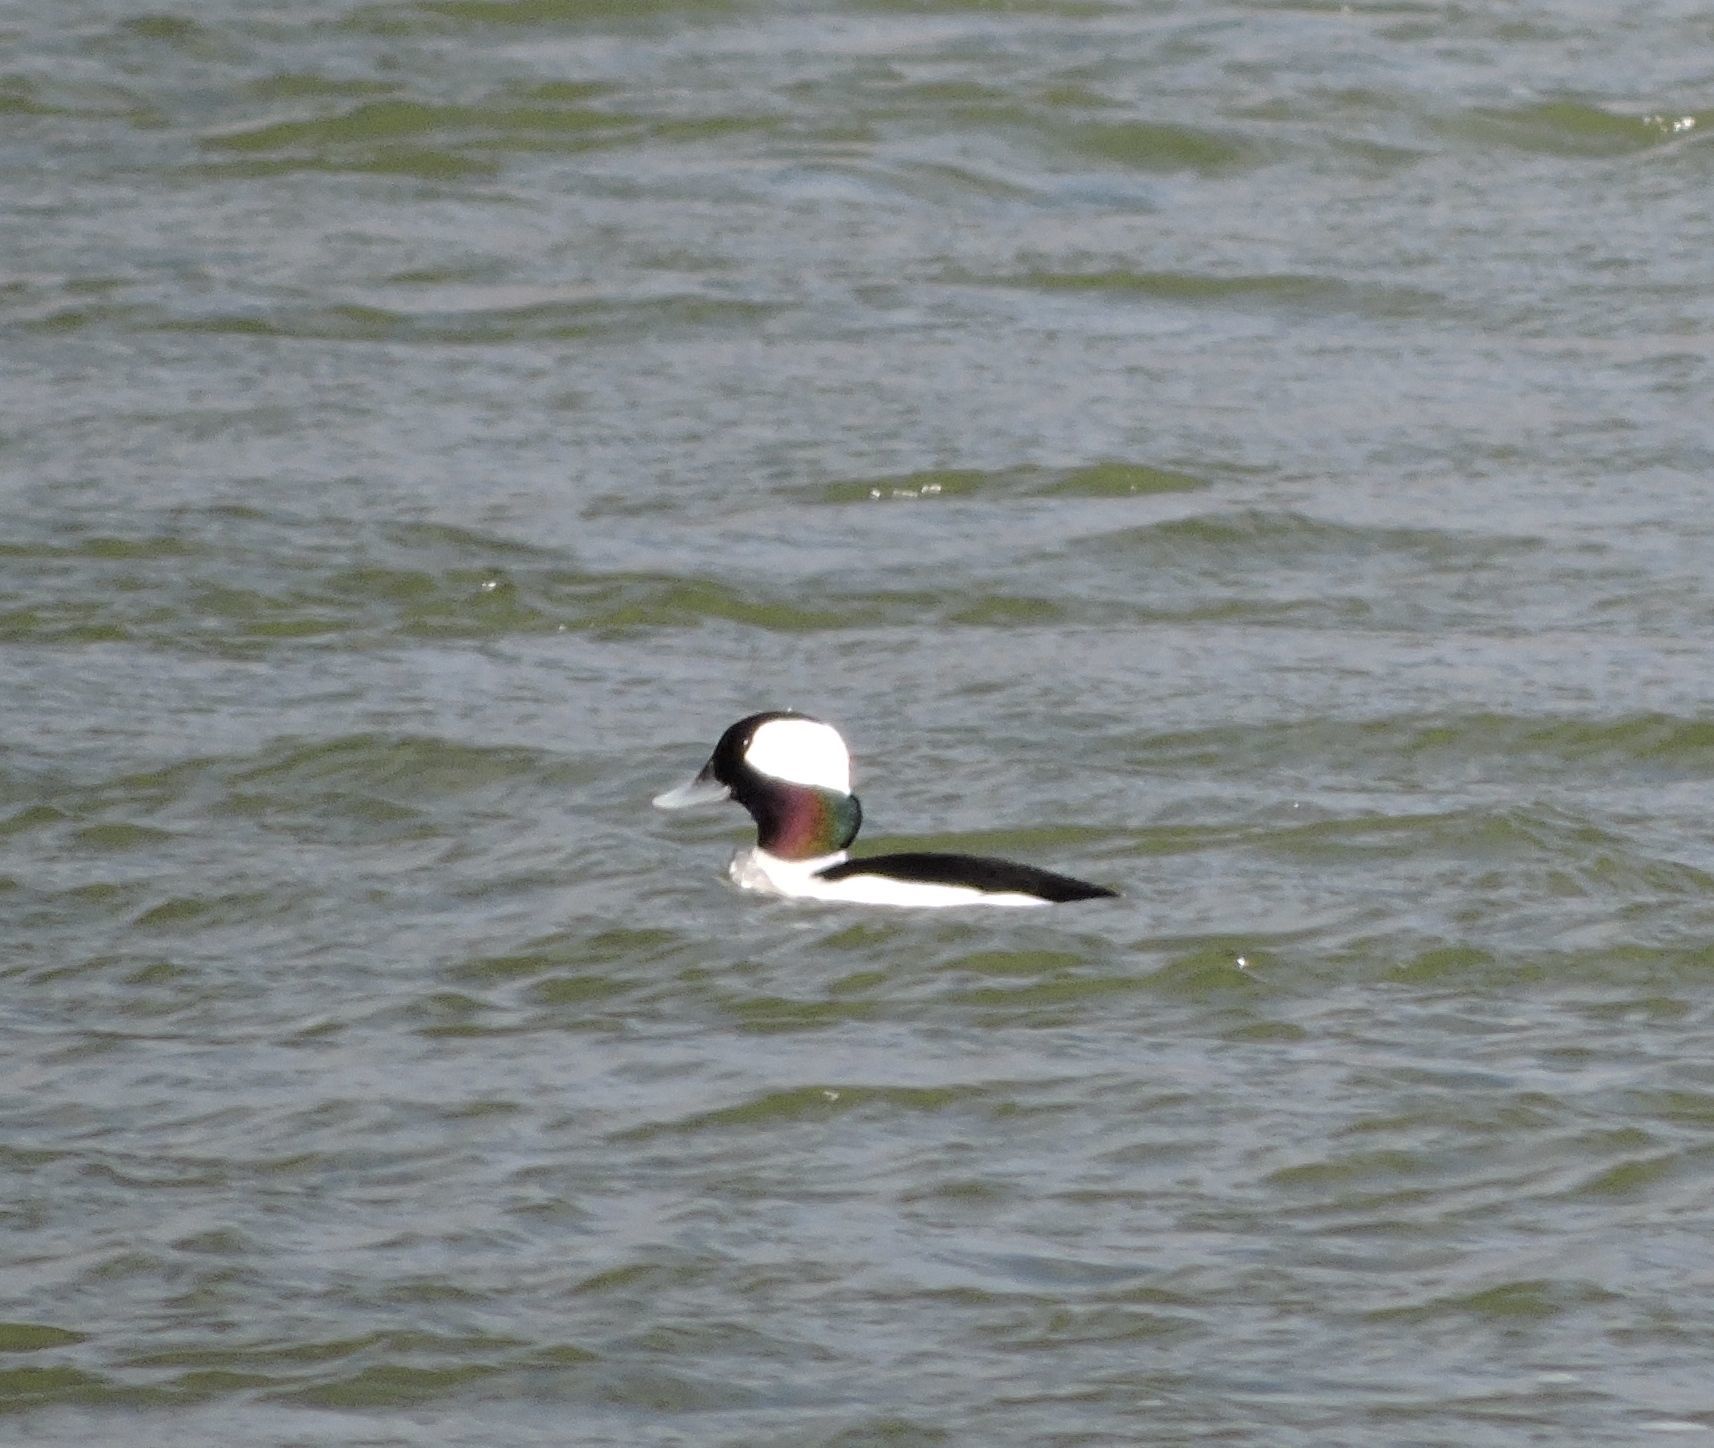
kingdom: Animalia
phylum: Chordata
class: Aves
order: Anseriformes
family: Anatidae
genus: Bucephala
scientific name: Bucephala albeola
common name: Bufflehead
